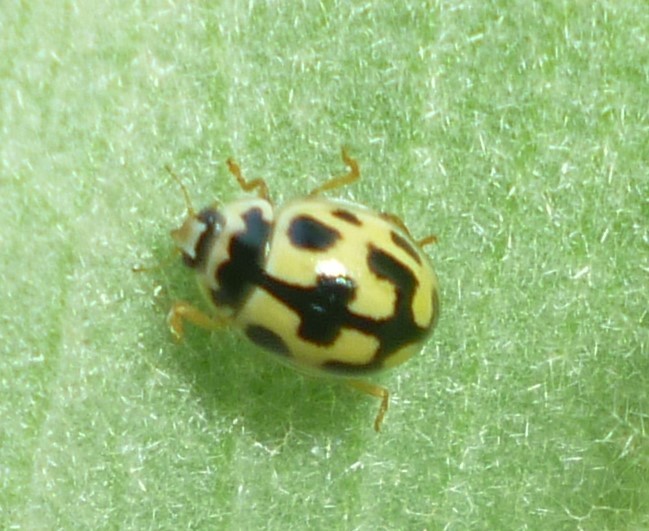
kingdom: Animalia
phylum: Arthropoda
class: Insecta
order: Coleoptera
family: Coccinellidae
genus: Propylaea
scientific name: Propylaea quatuordecimpunctata
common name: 14-spotted ladybird beetle
